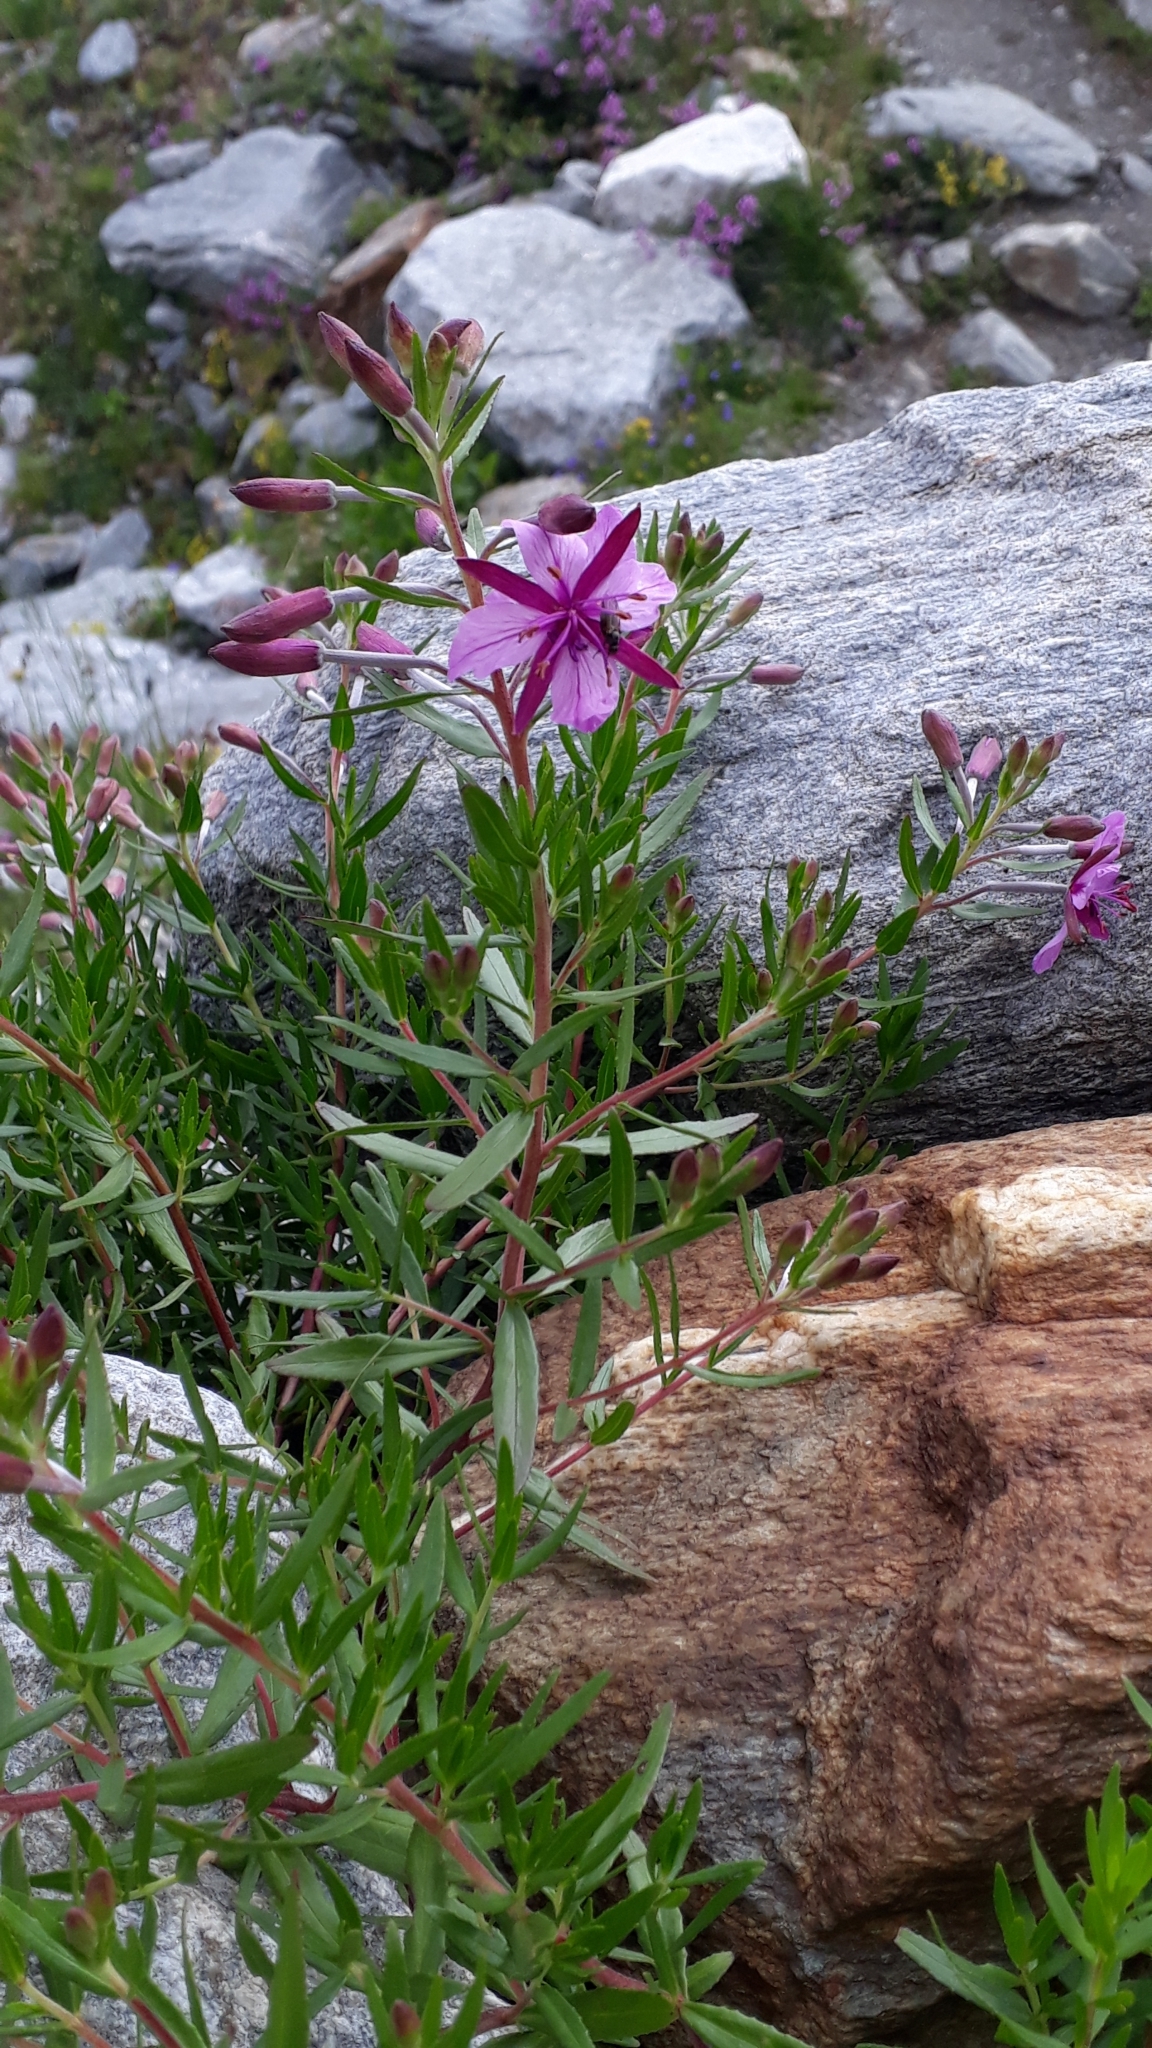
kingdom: Plantae
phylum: Tracheophyta
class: Magnoliopsida
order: Myrtales
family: Onagraceae
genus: Chamaenerion
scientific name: Chamaenerion fleischeri
